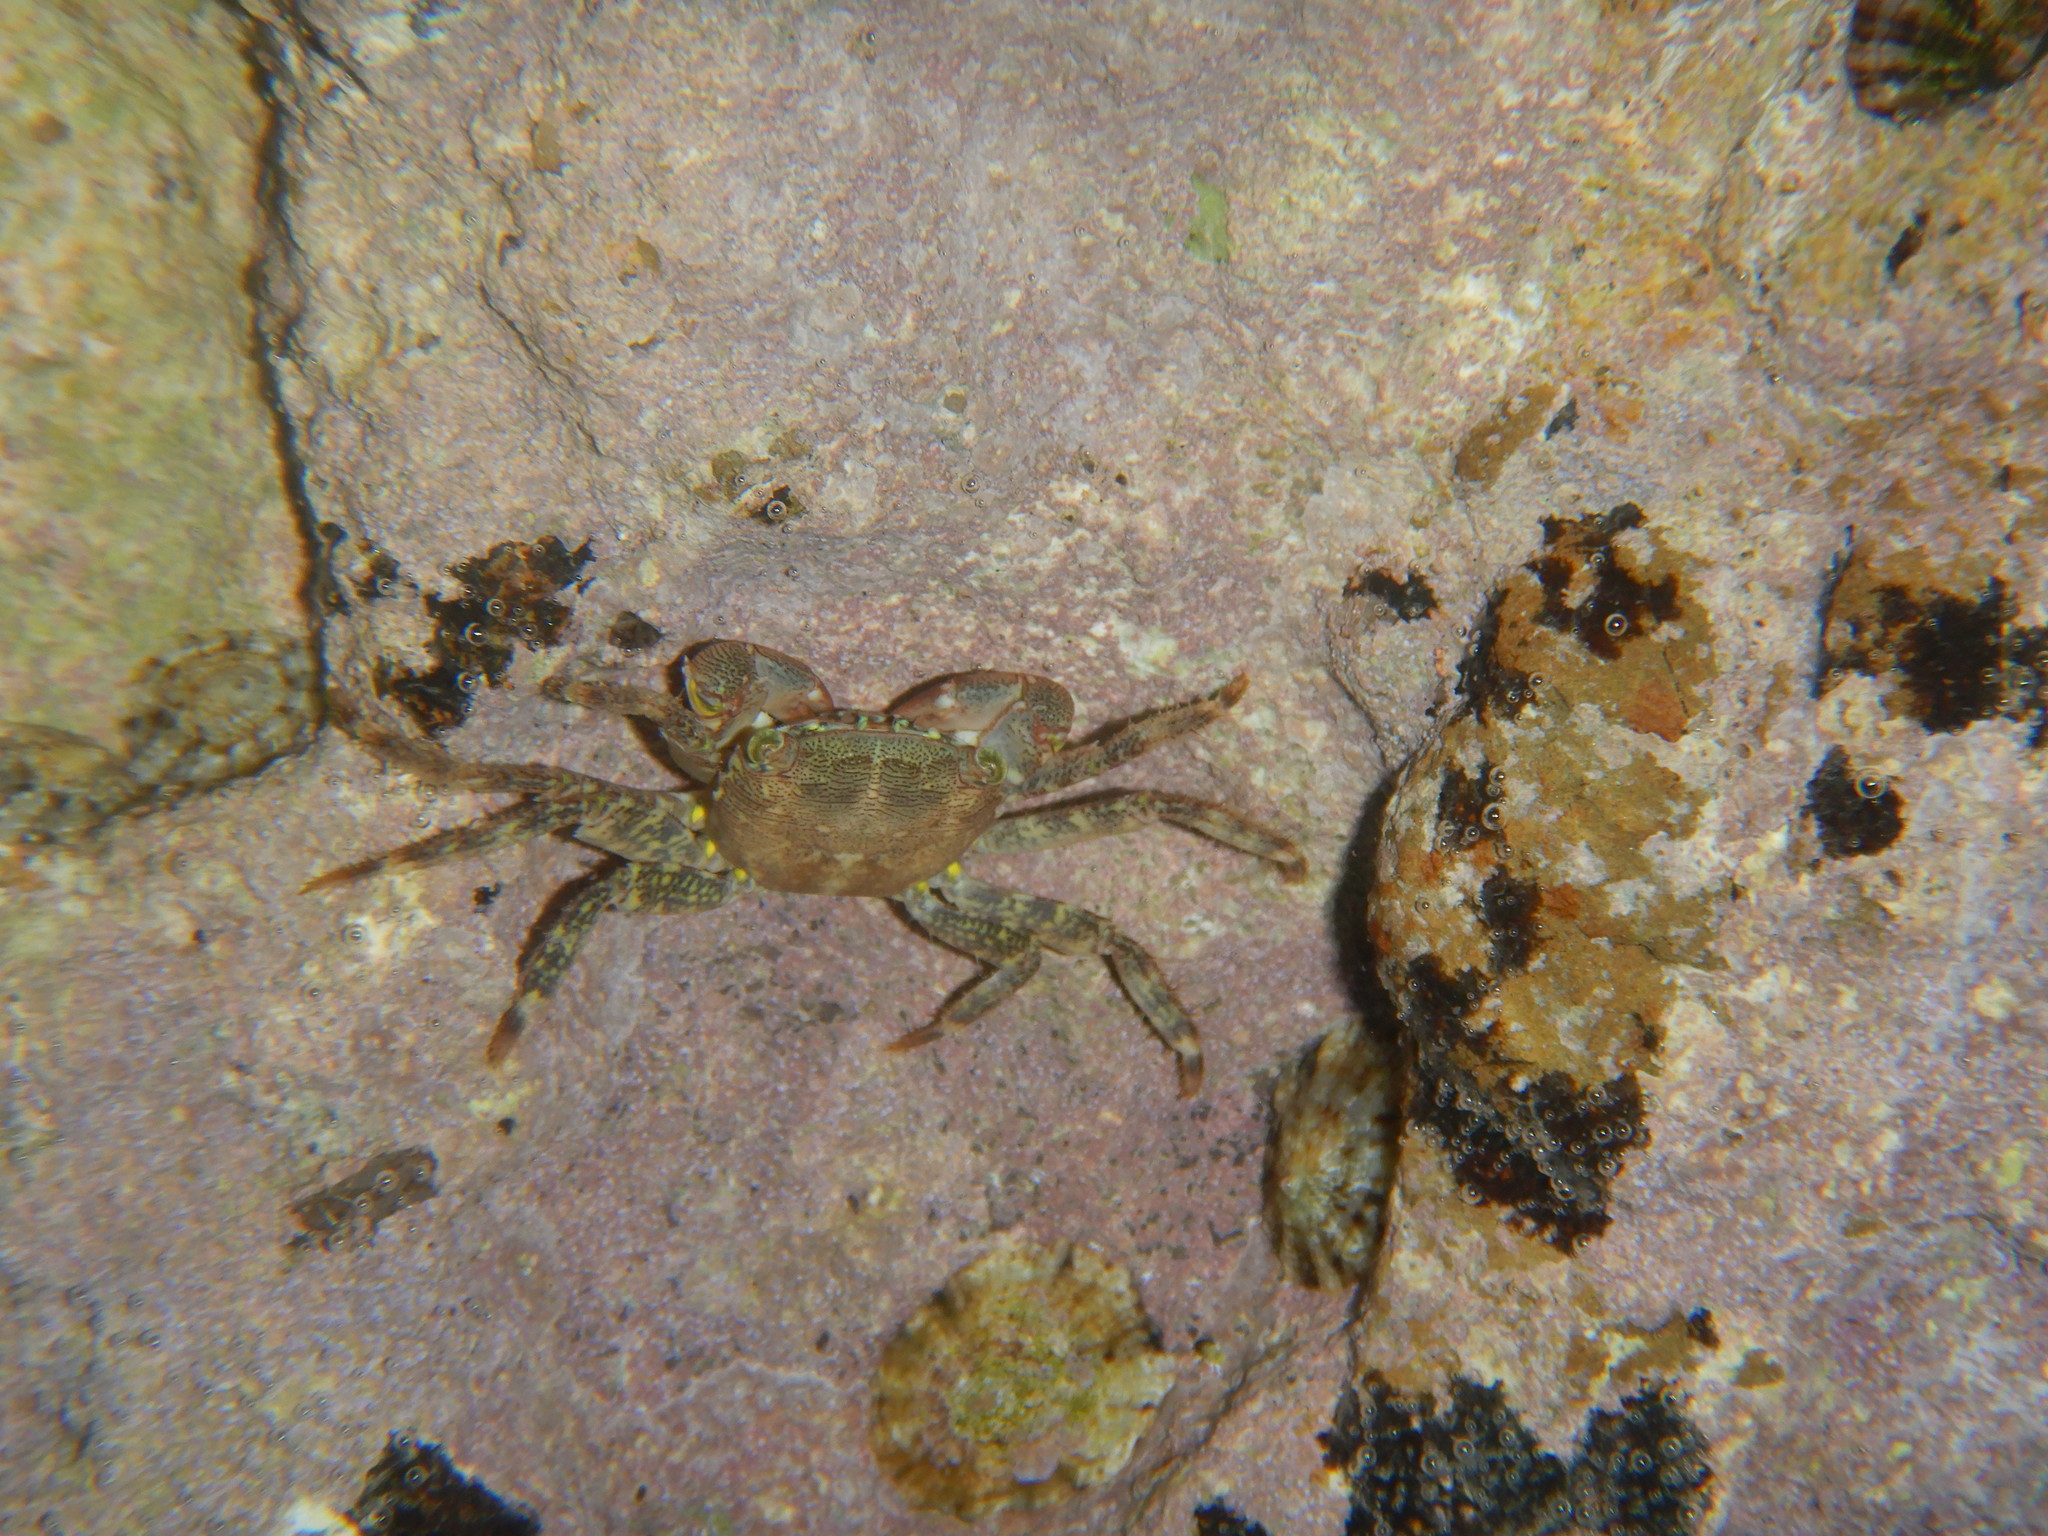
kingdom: Animalia
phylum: Arthropoda
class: Malacostraca
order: Decapoda
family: Grapsidae
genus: Pachygrapsus
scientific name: Pachygrapsus marmoratus
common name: Marbled rock crab
